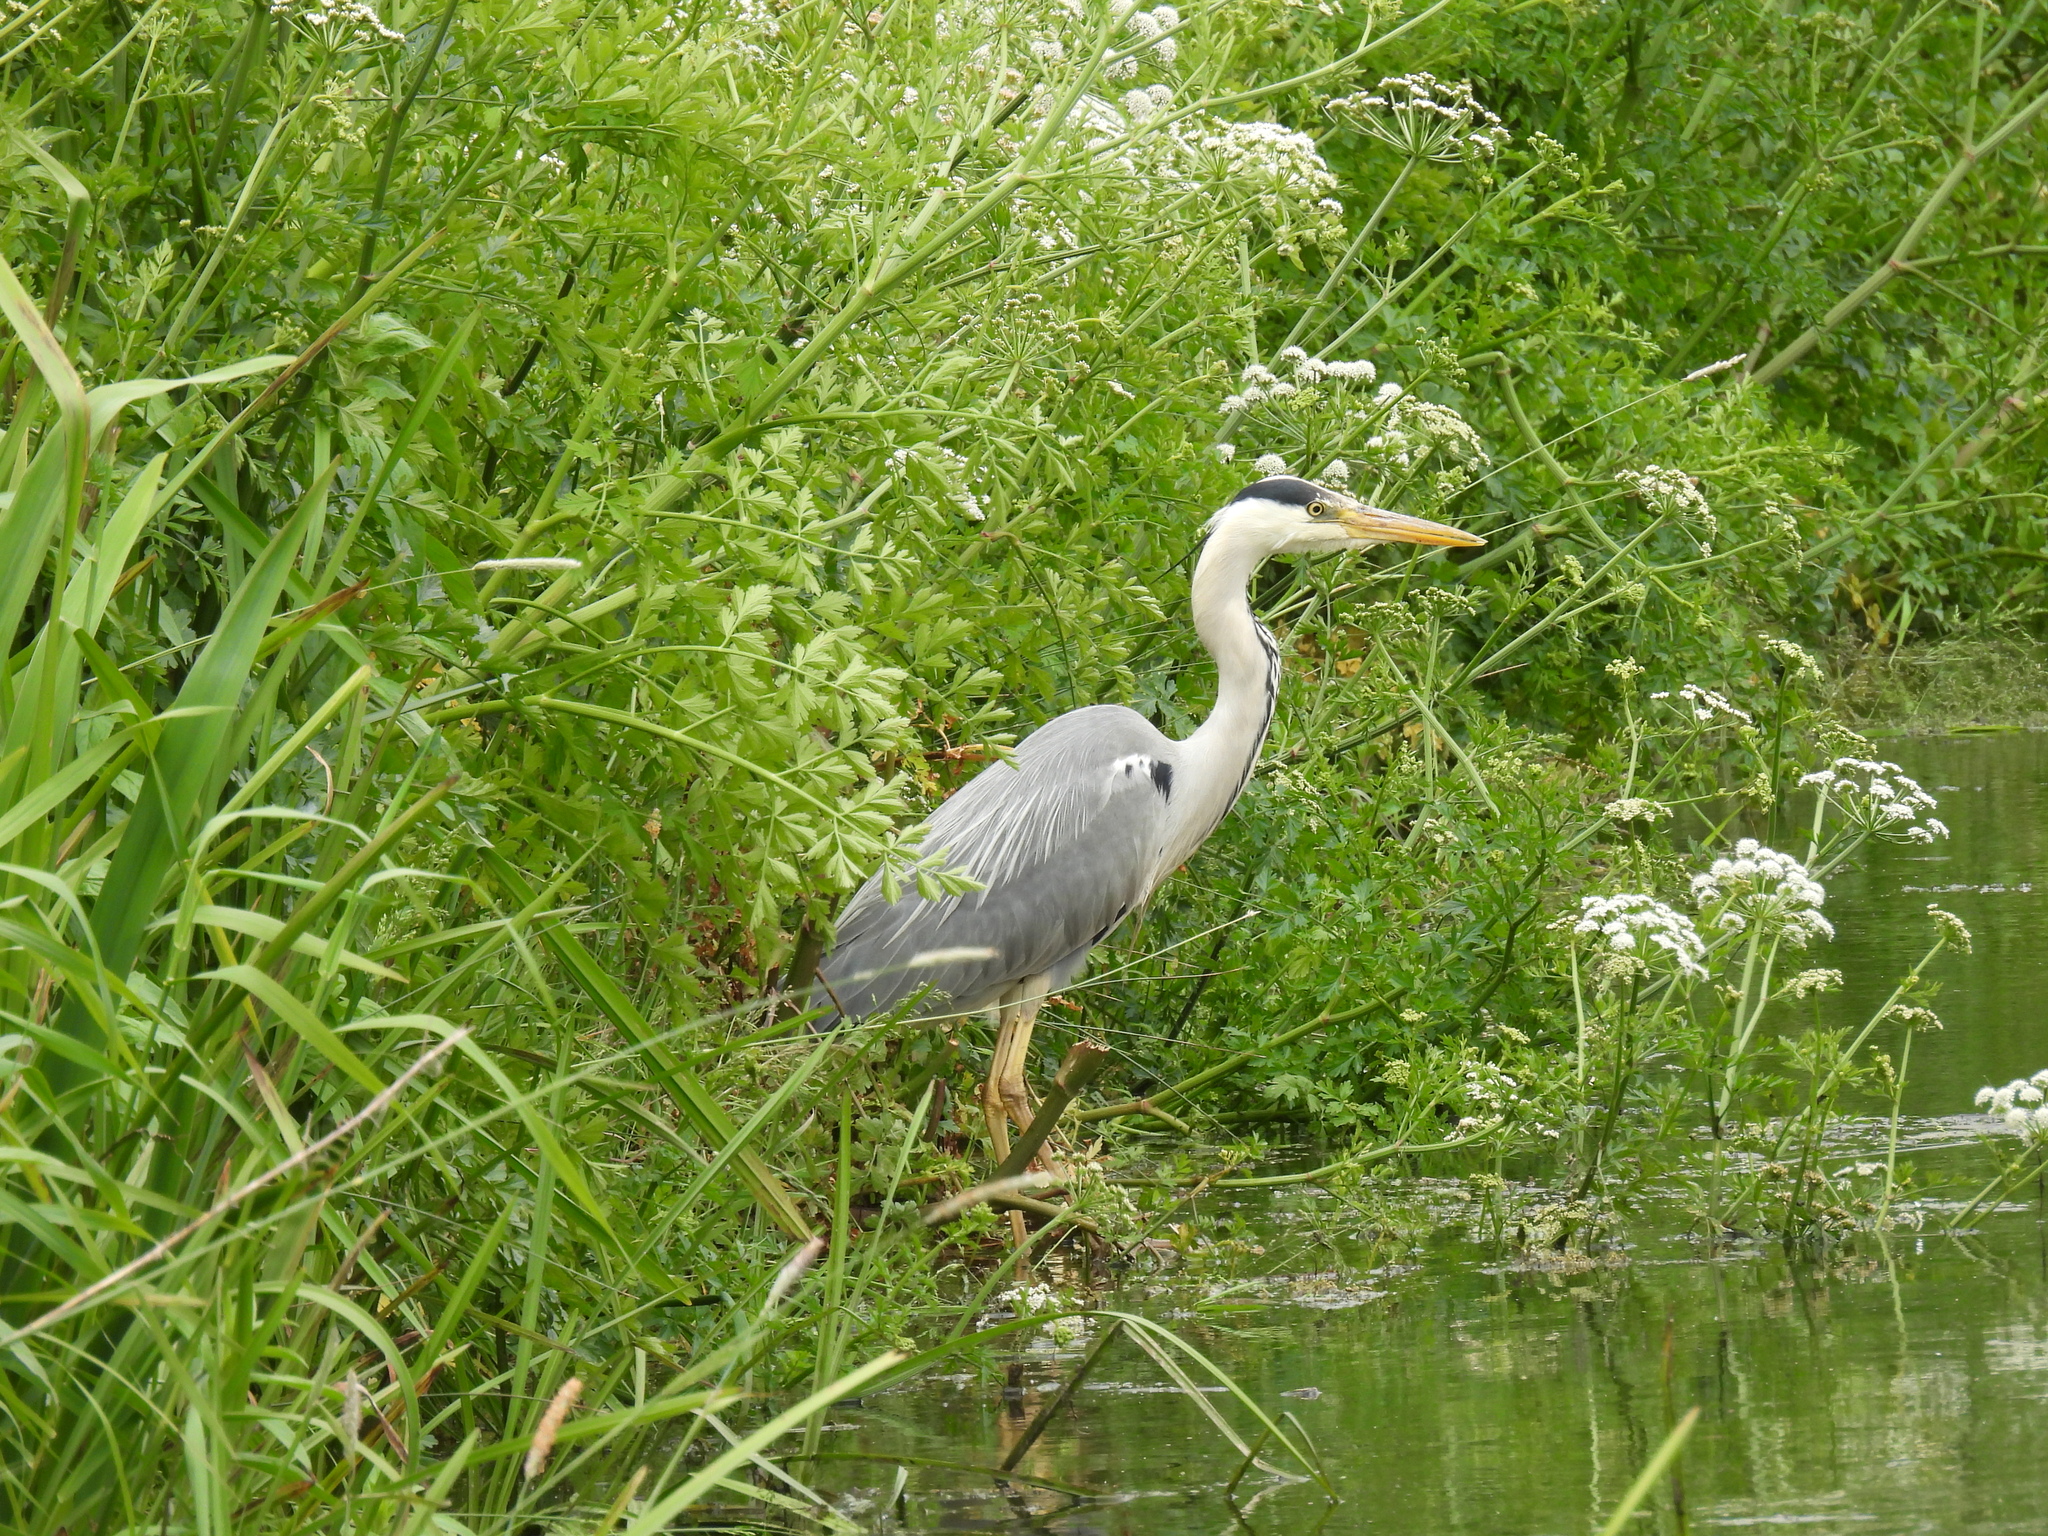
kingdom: Animalia
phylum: Chordata
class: Aves
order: Pelecaniformes
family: Ardeidae
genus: Ardea
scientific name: Ardea cinerea
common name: Grey heron
